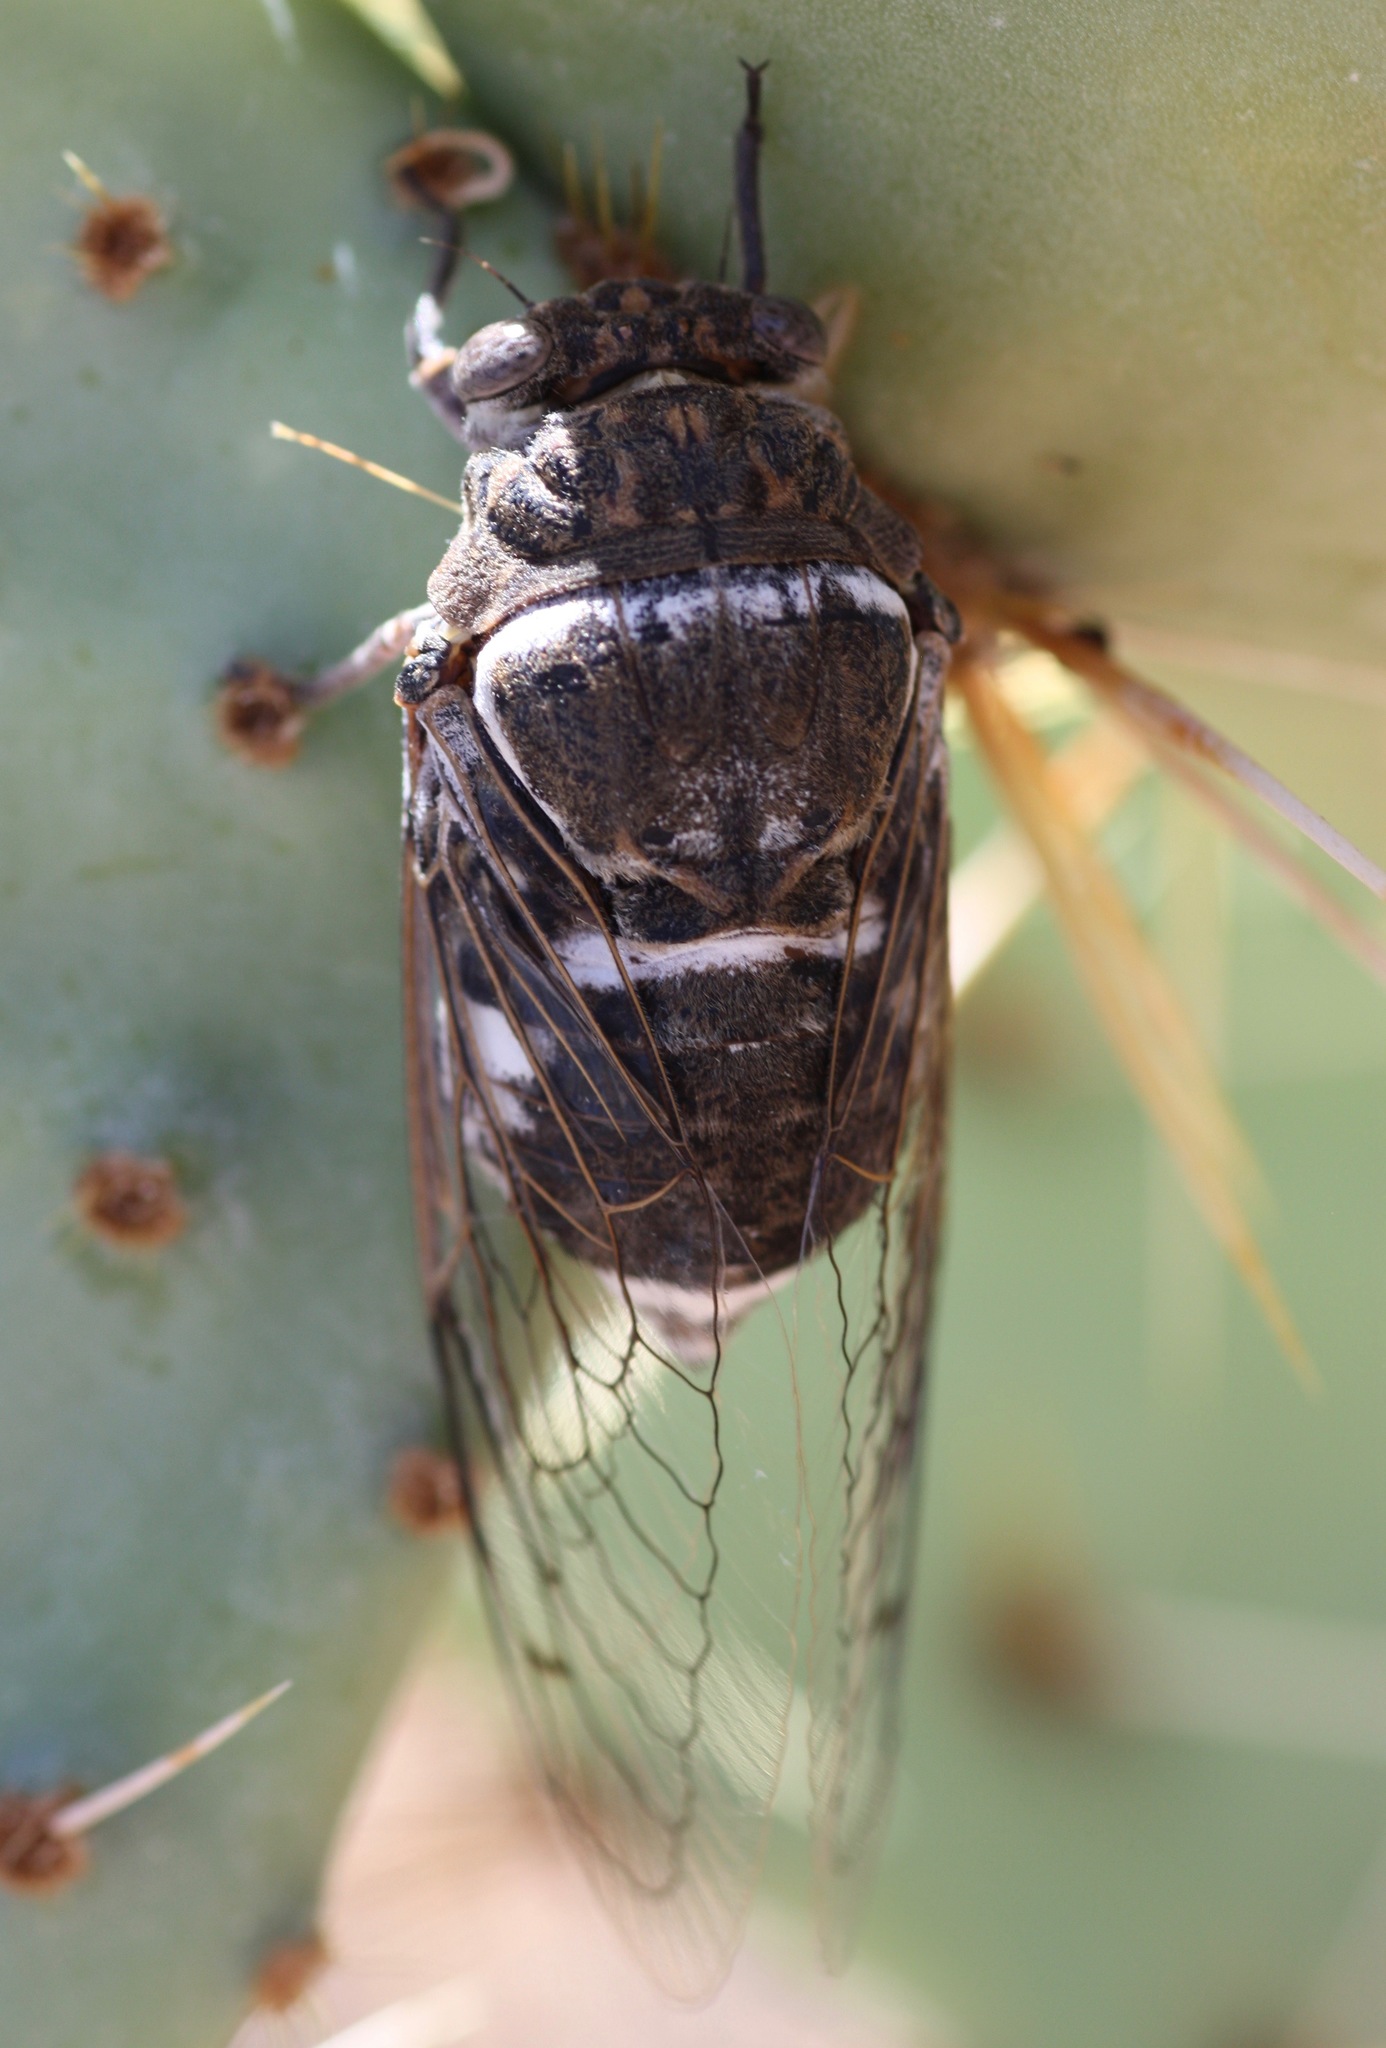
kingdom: Animalia
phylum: Arthropoda
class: Insecta
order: Hemiptera
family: Cicadidae
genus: Cacama
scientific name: Cacama moorei
